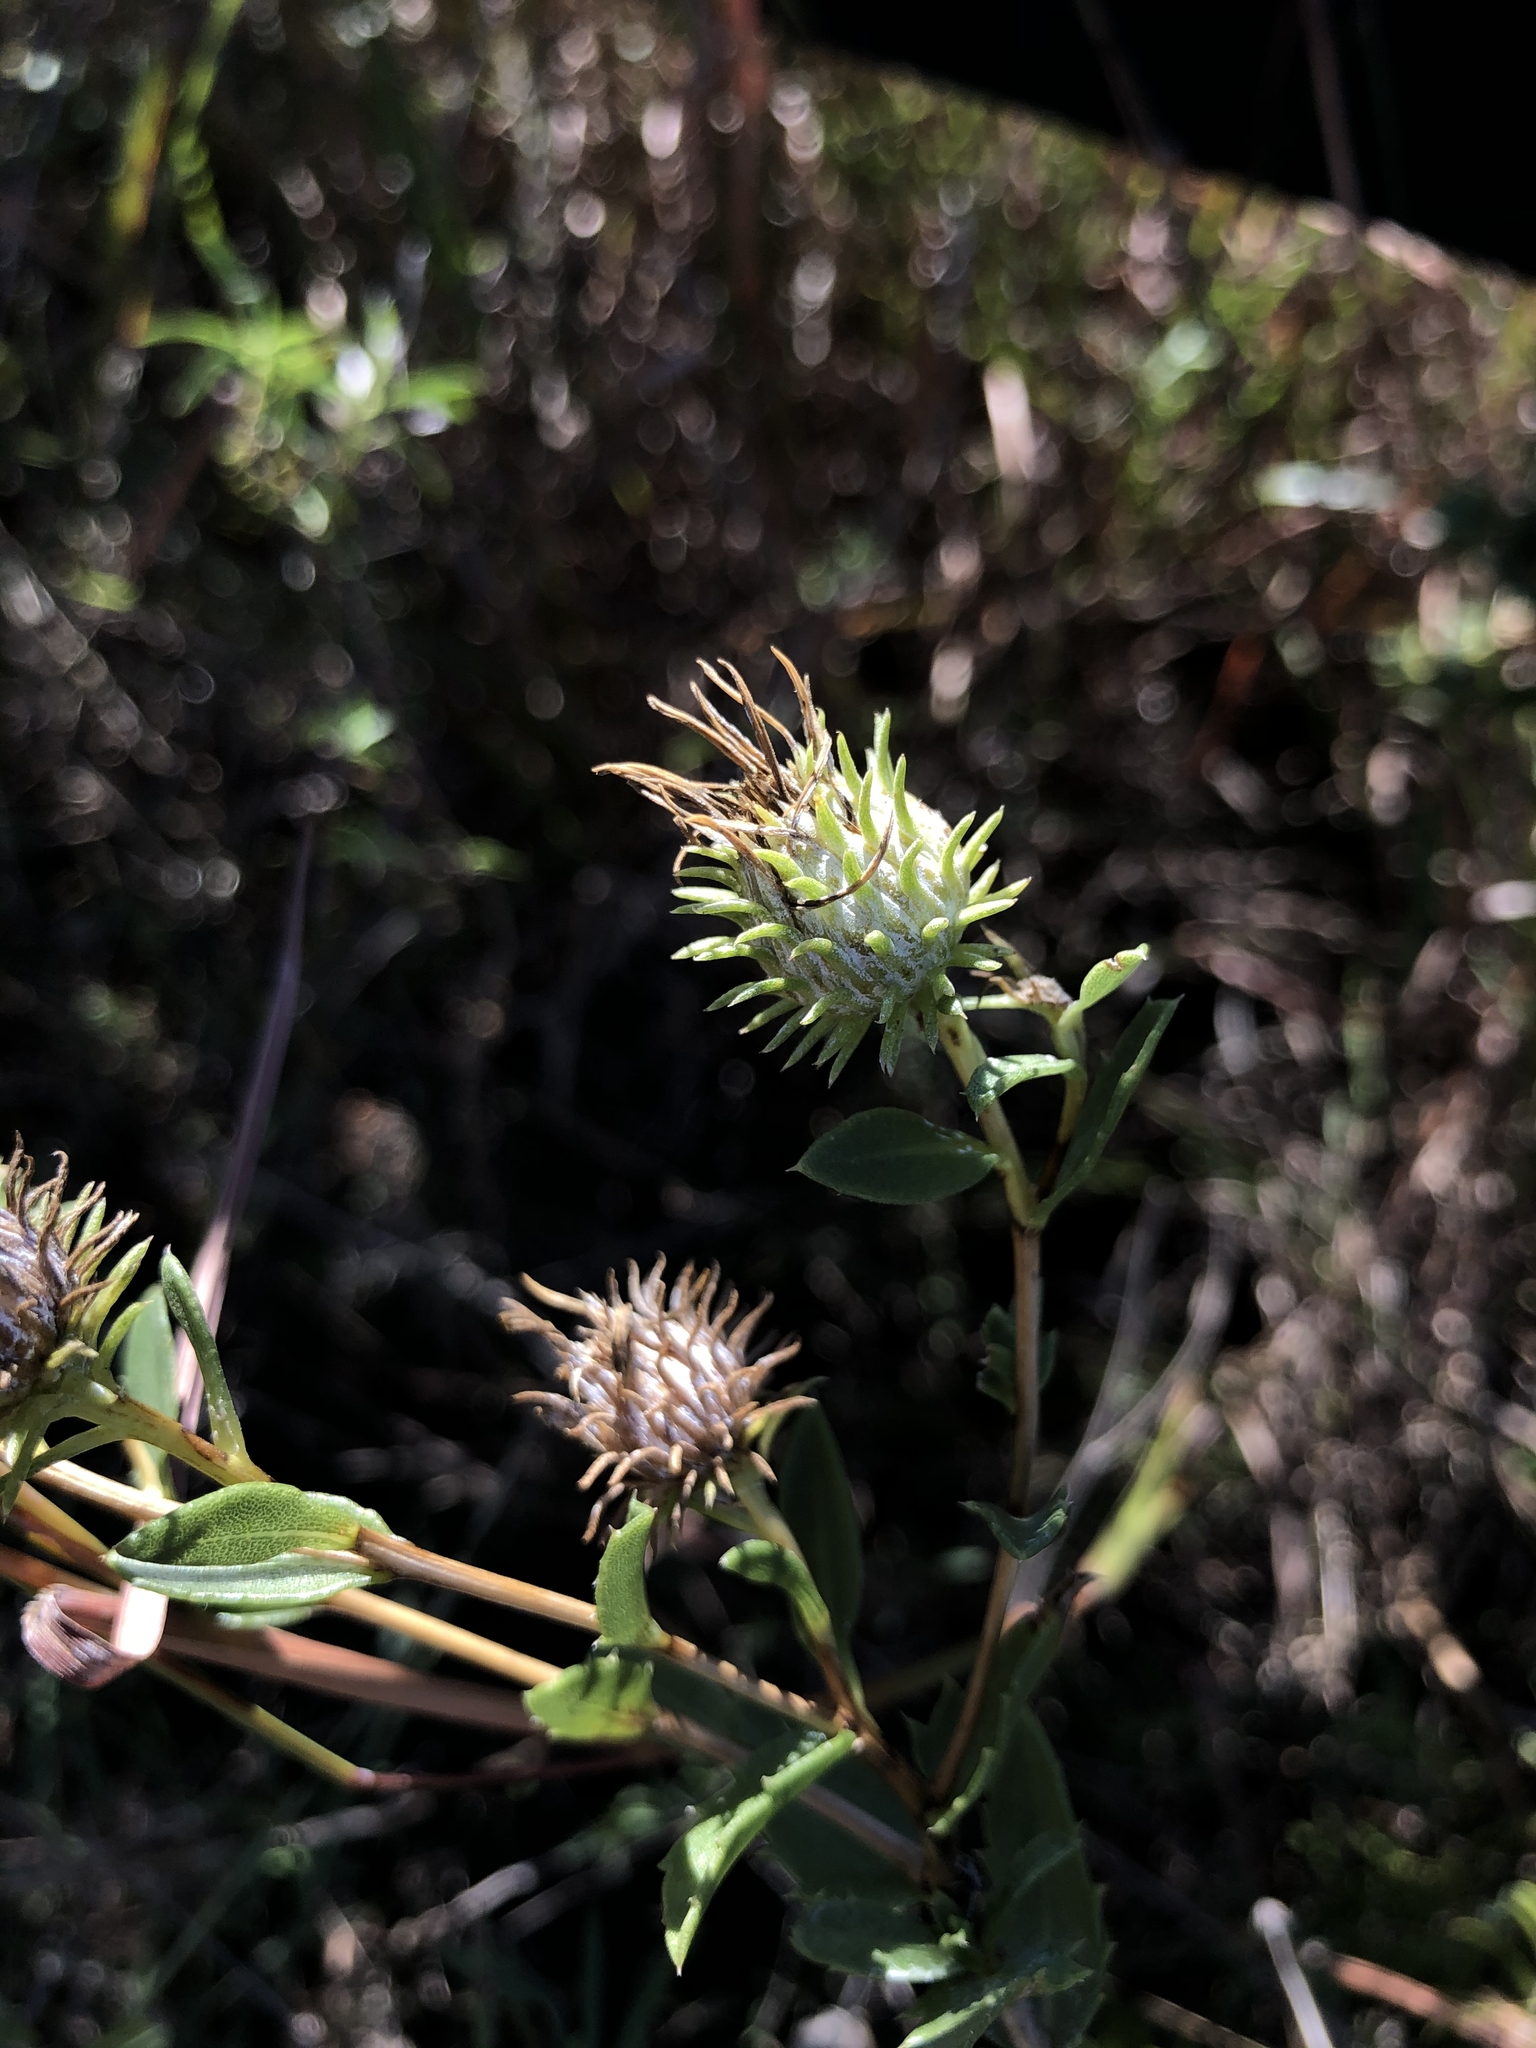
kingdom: Plantae
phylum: Tracheophyta
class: Magnoliopsida
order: Asterales
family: Asteraceae
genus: Grindelia
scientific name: Grindelia lanceolata
